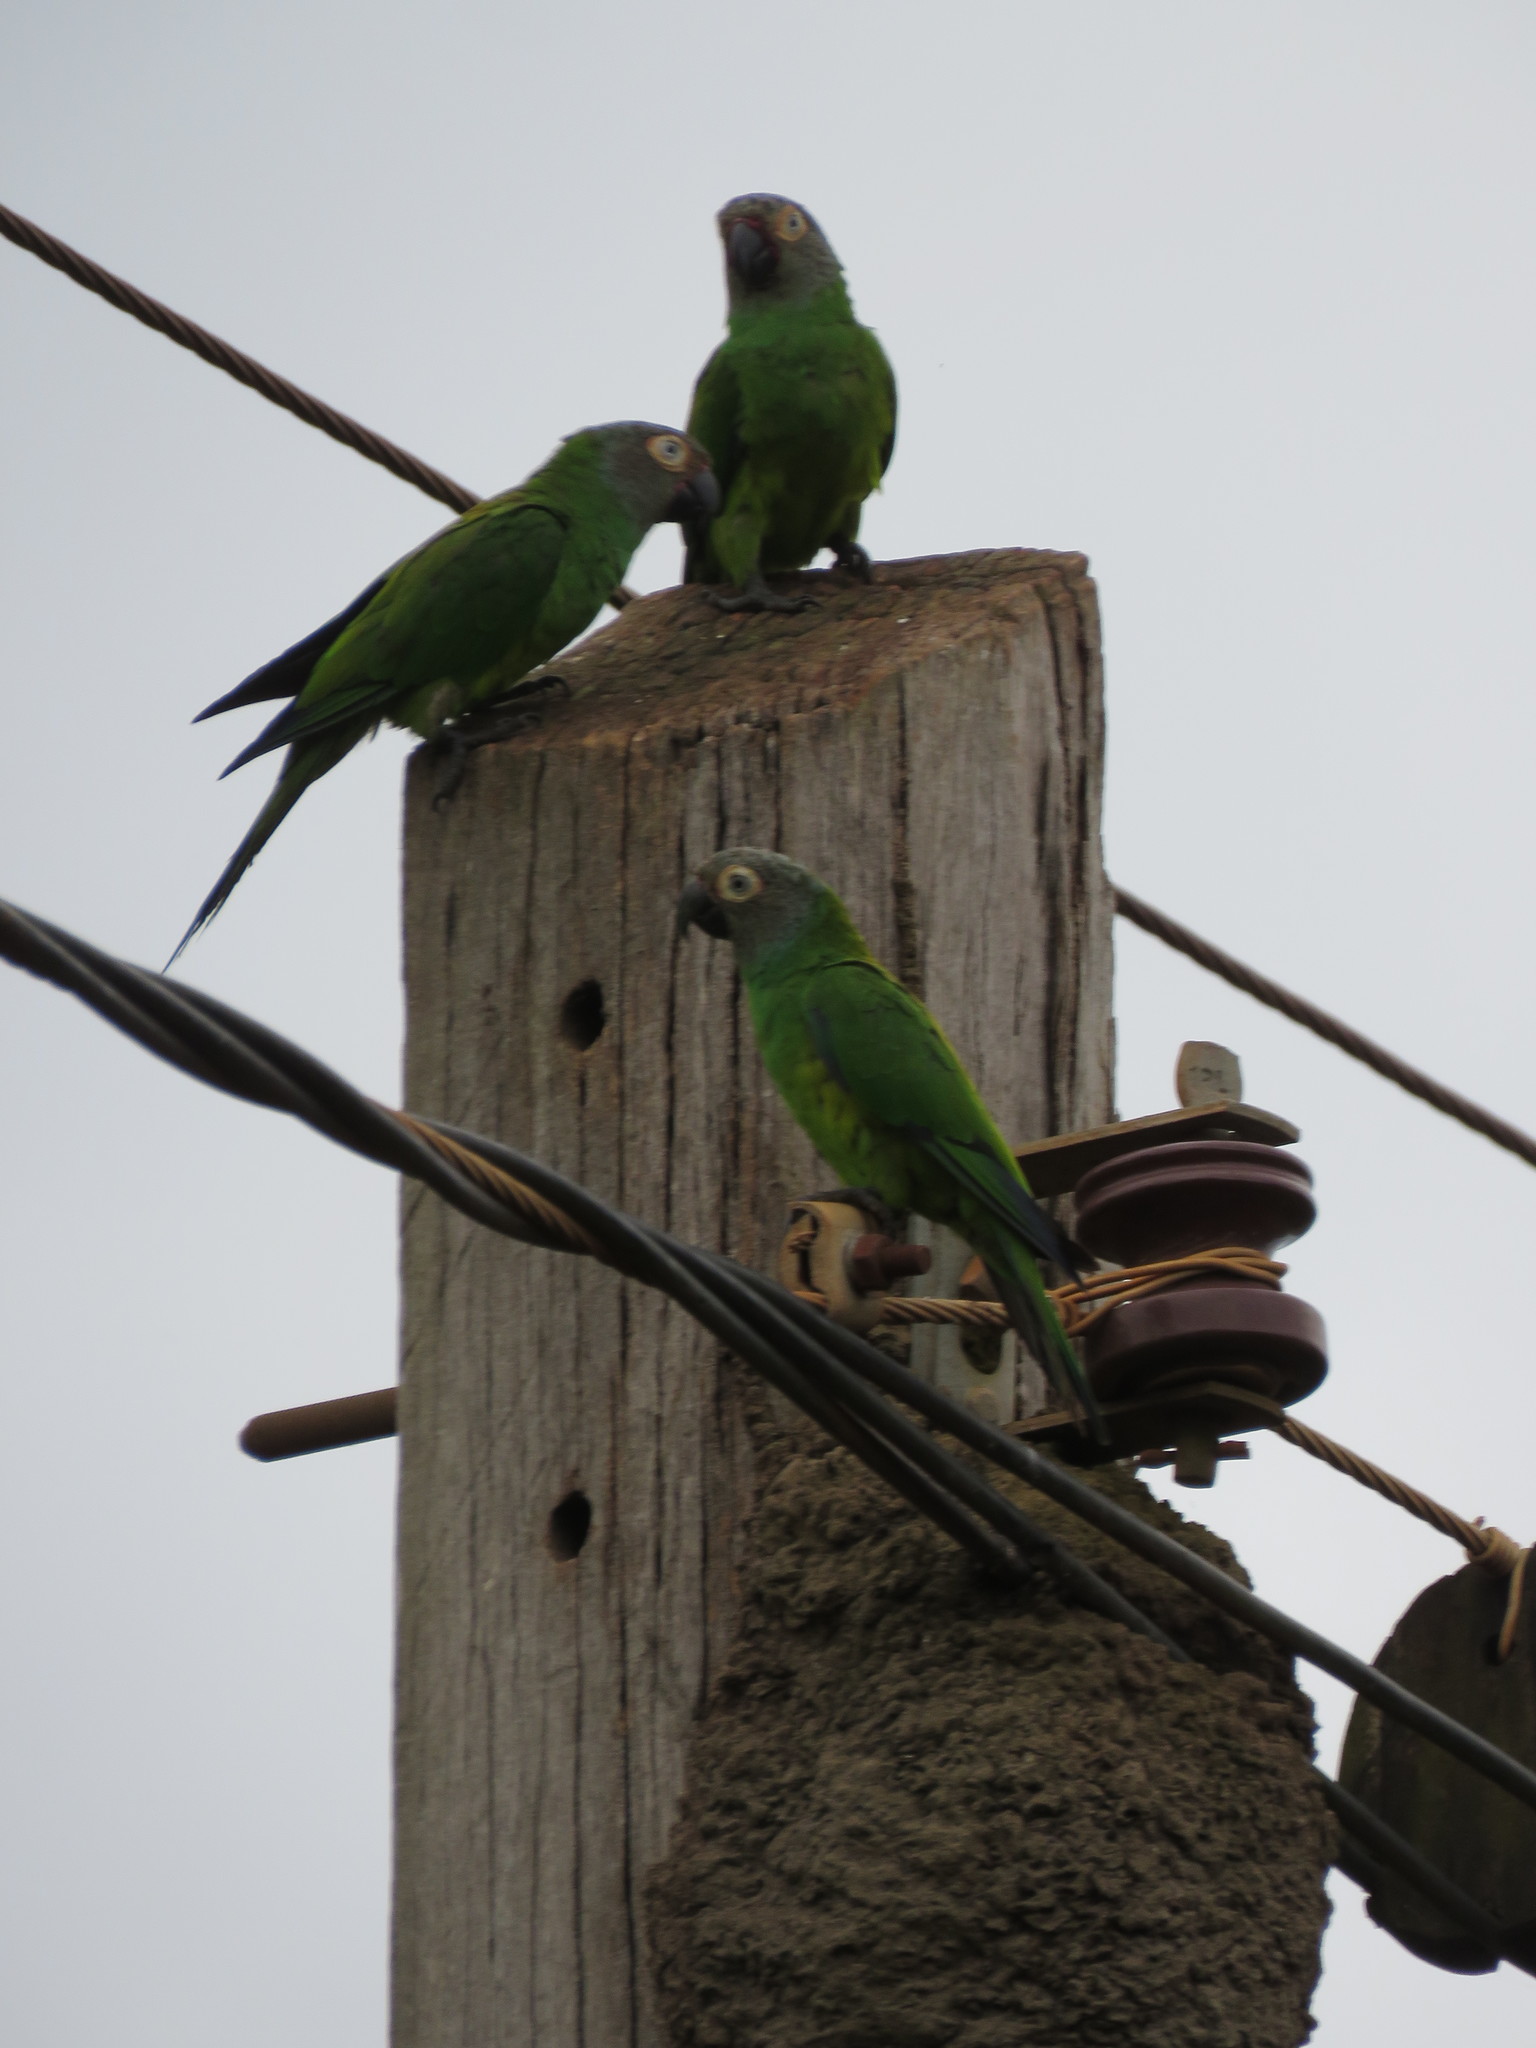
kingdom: Animalia
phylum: Chordata
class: Aves
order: Psittaciformes
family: Psittacidae
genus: Aratinga
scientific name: Aratinga weddellii
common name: Dusky-headed parakeet
